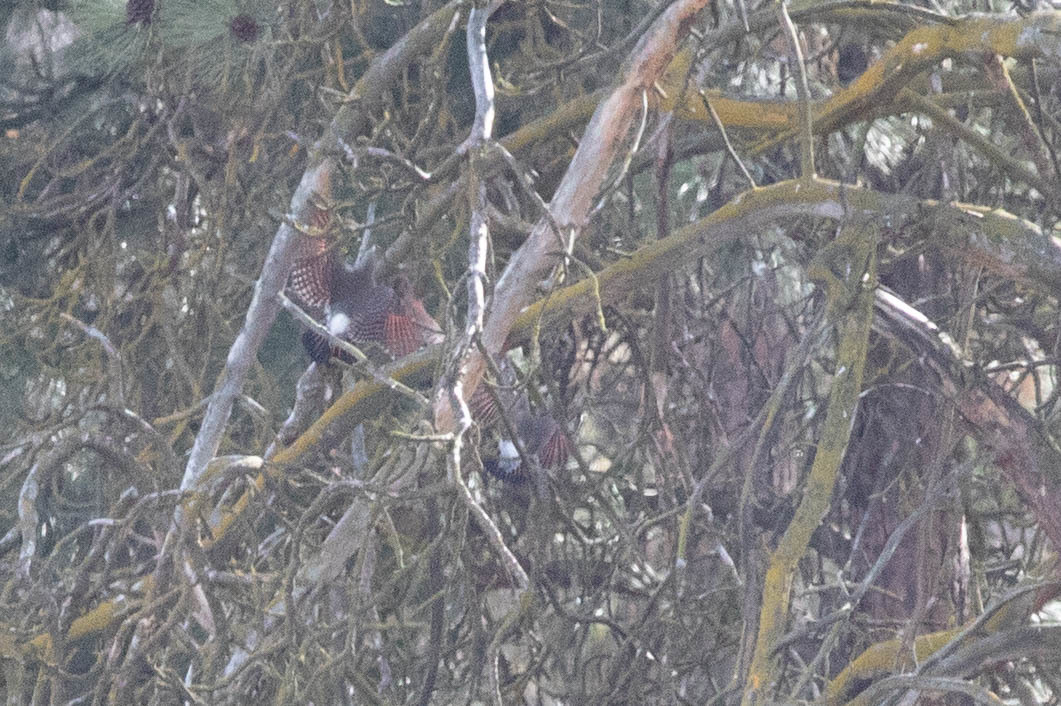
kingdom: Animalia
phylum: Chordata
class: Aves
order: Piciformes
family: Picidae
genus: Colaptes
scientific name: Colaptes auratus
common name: Northern flicker
